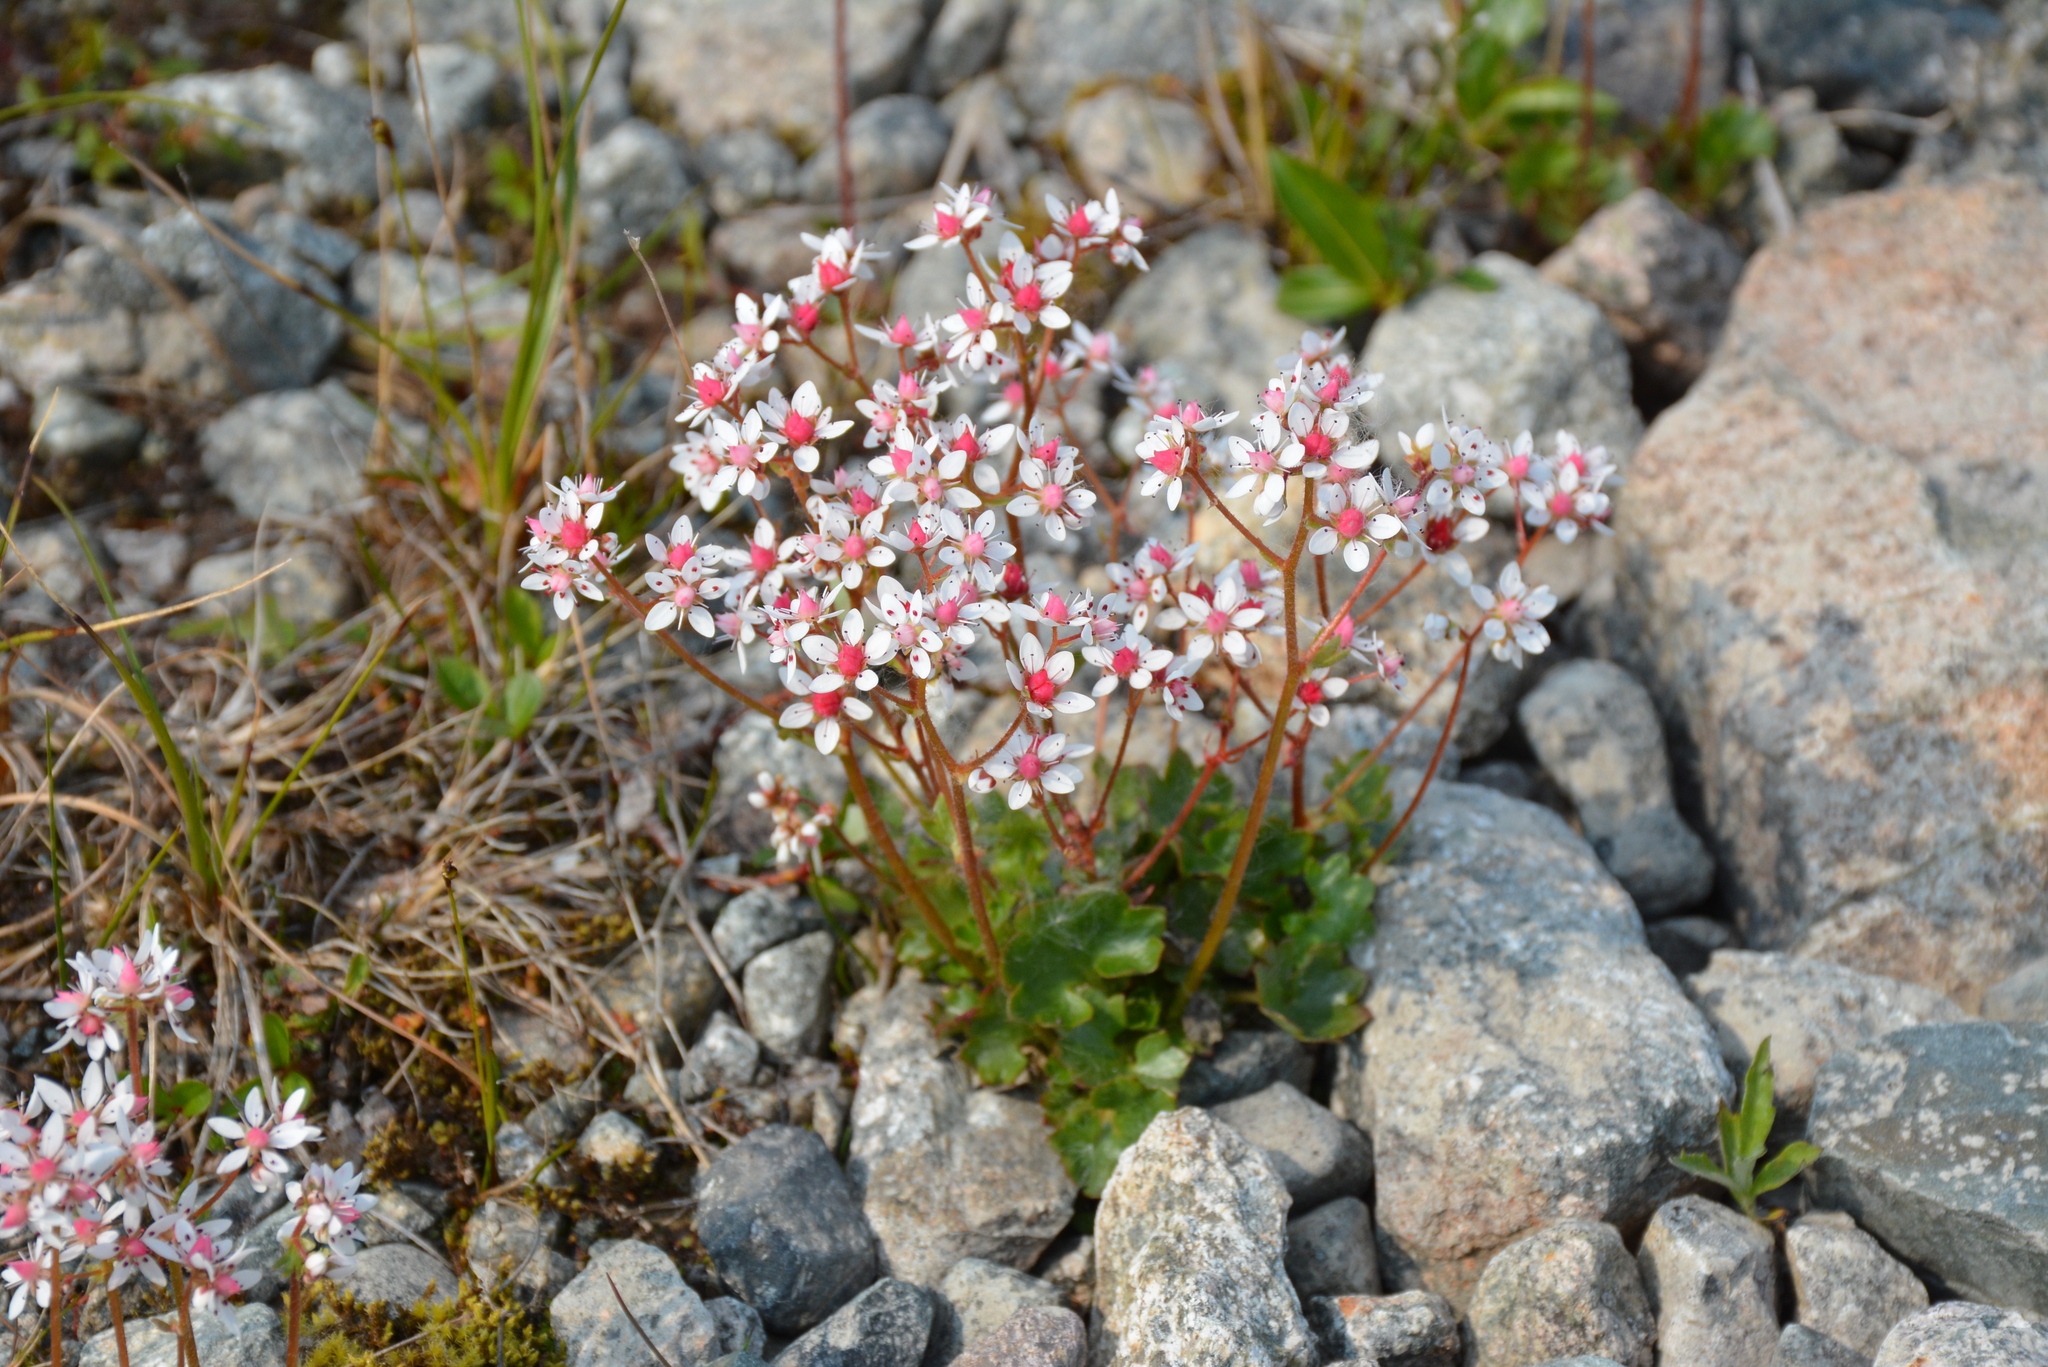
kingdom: Plantae
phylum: Tracheophyta
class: Magnoliopsida
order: Saxifragales
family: Saxifragaceae
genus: Micranthes
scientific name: Micranthes nudicaulis
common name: Nakedstem saxifrage
